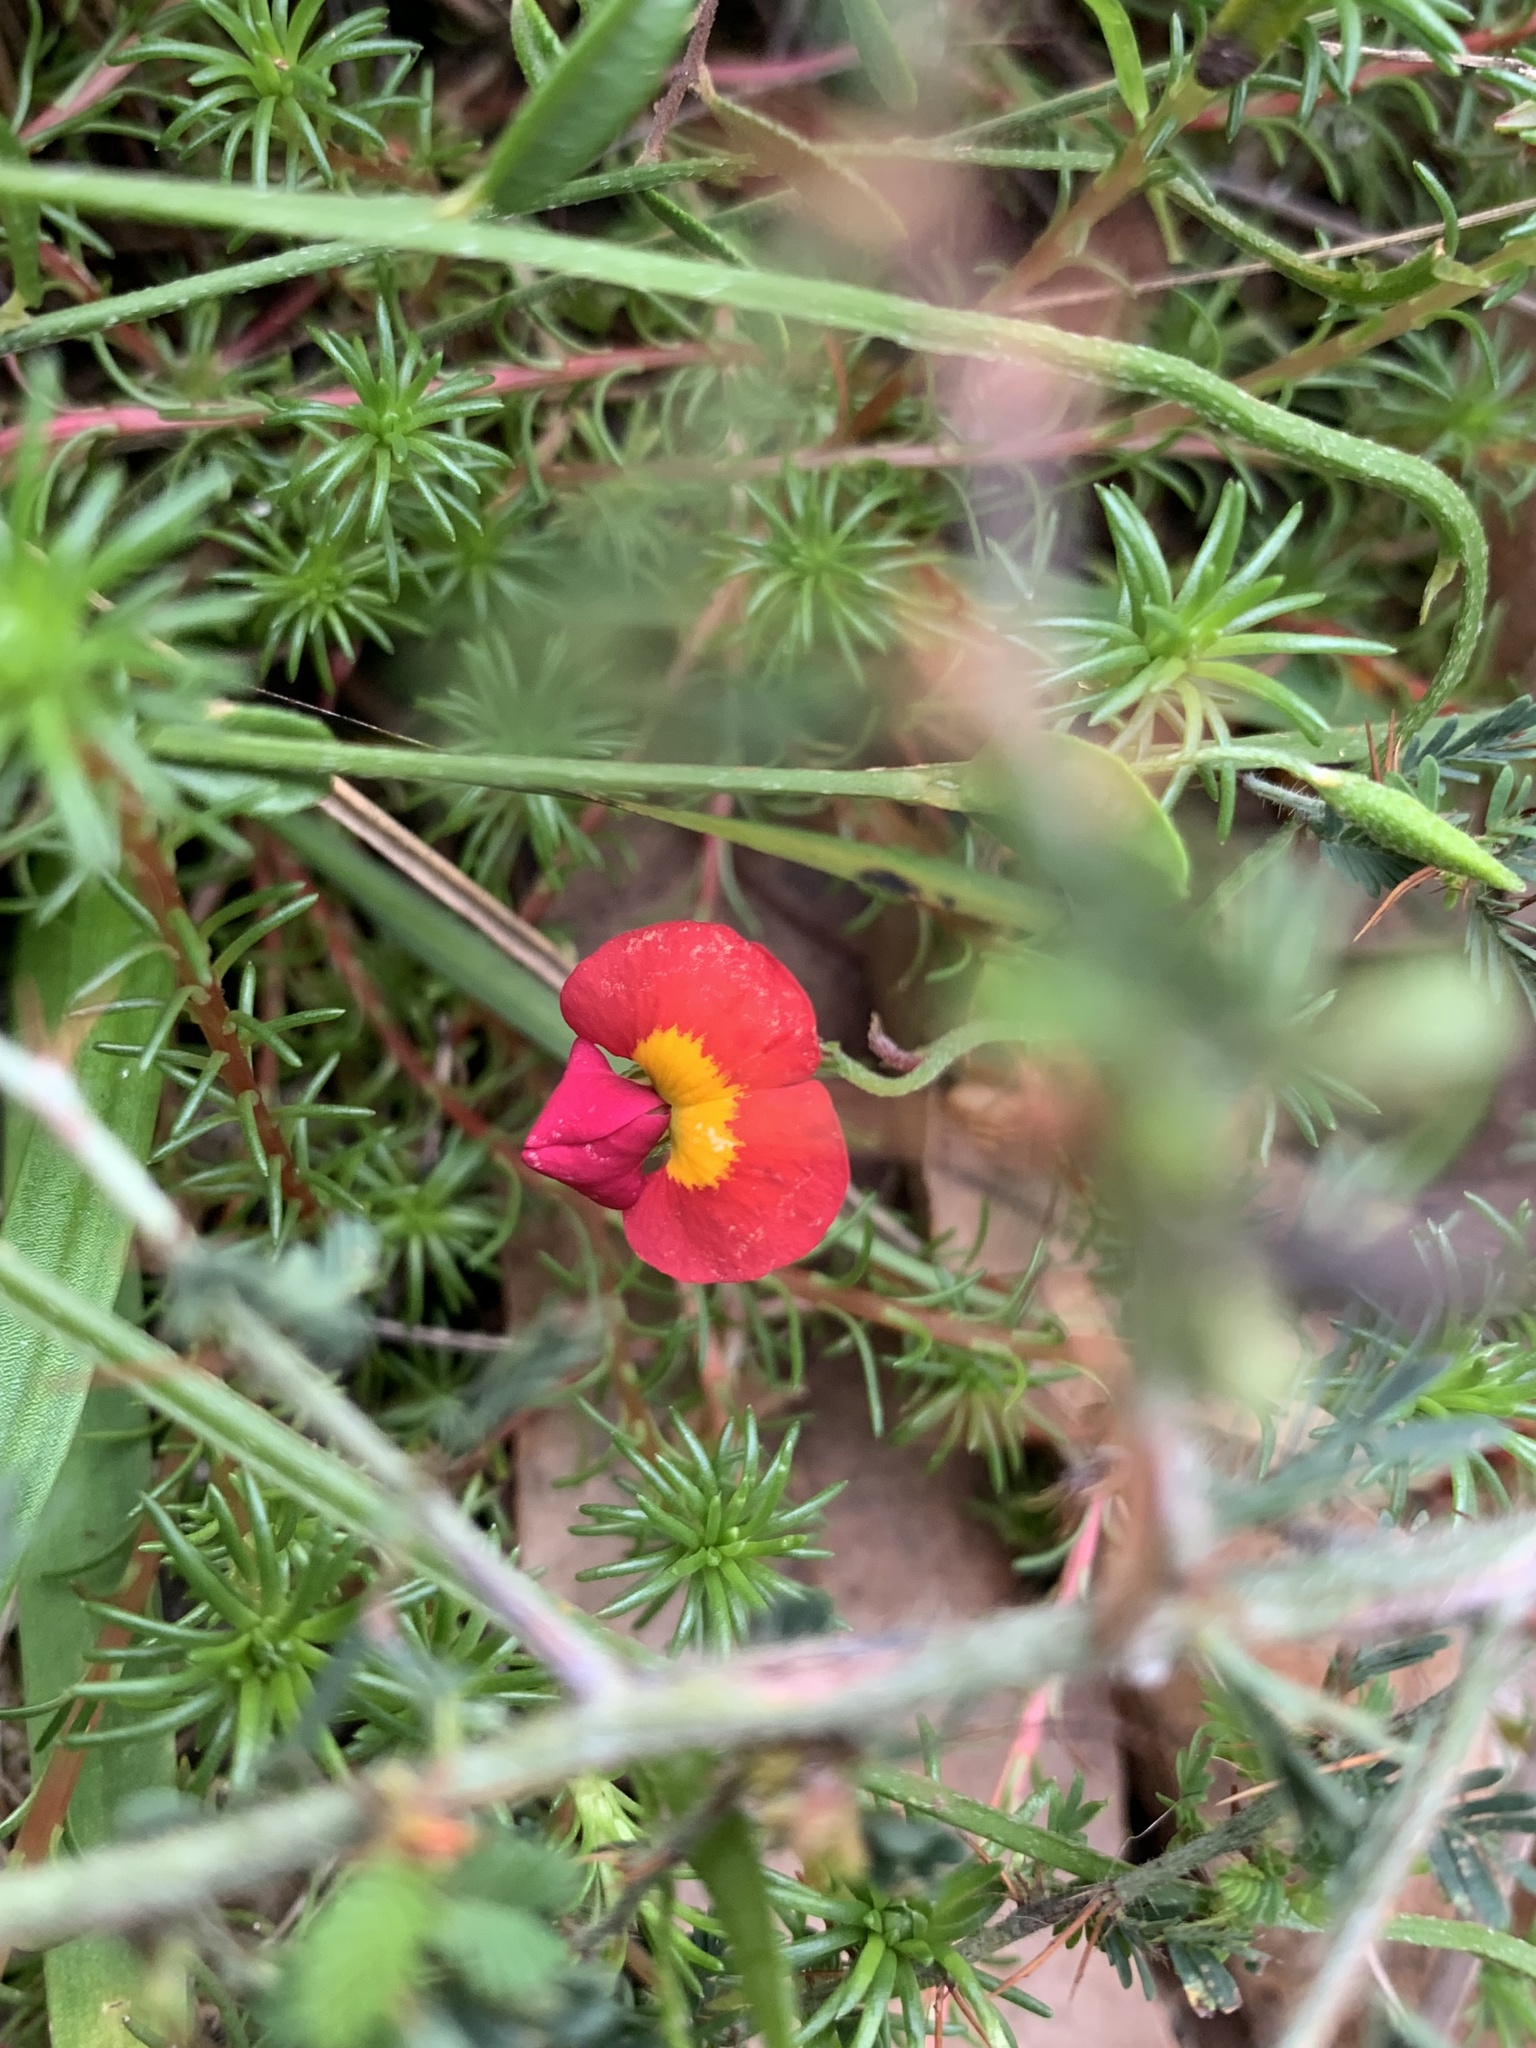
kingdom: Plantae
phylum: Tracheophyta
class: Magnoliopsida
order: Fabales
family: Fabaceae
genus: Chorizema
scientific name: Chorizema rhombeum
